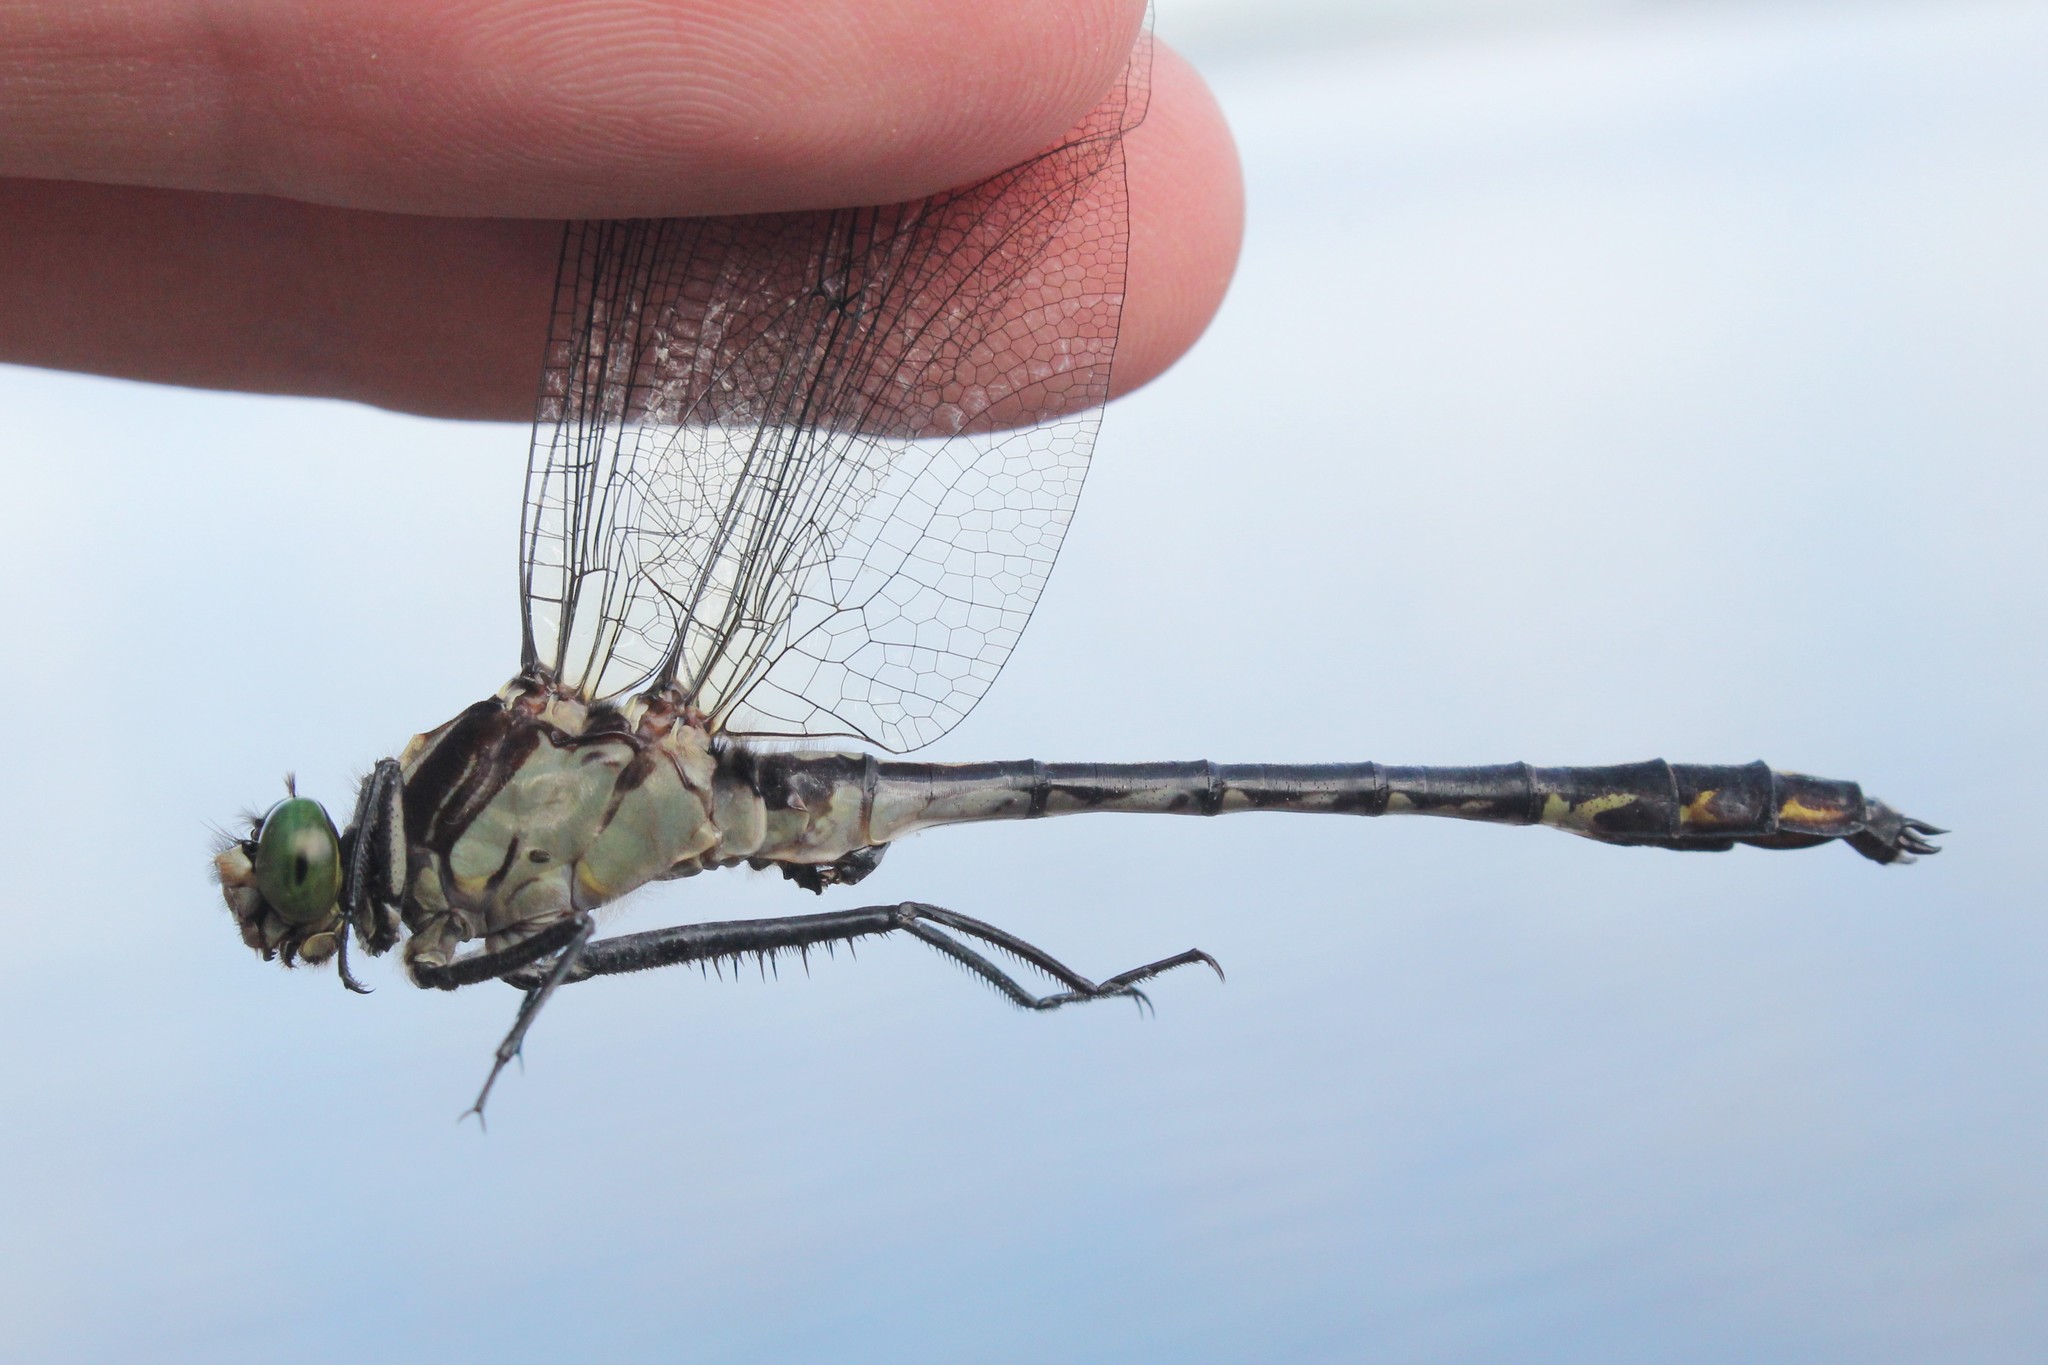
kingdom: Animalia
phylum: Arthropoda
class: Insecta
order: Odonata
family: Gomphidae
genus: Dromogomphus
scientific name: Dromogomphus spinosus
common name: Black-shouldered spinyleg
